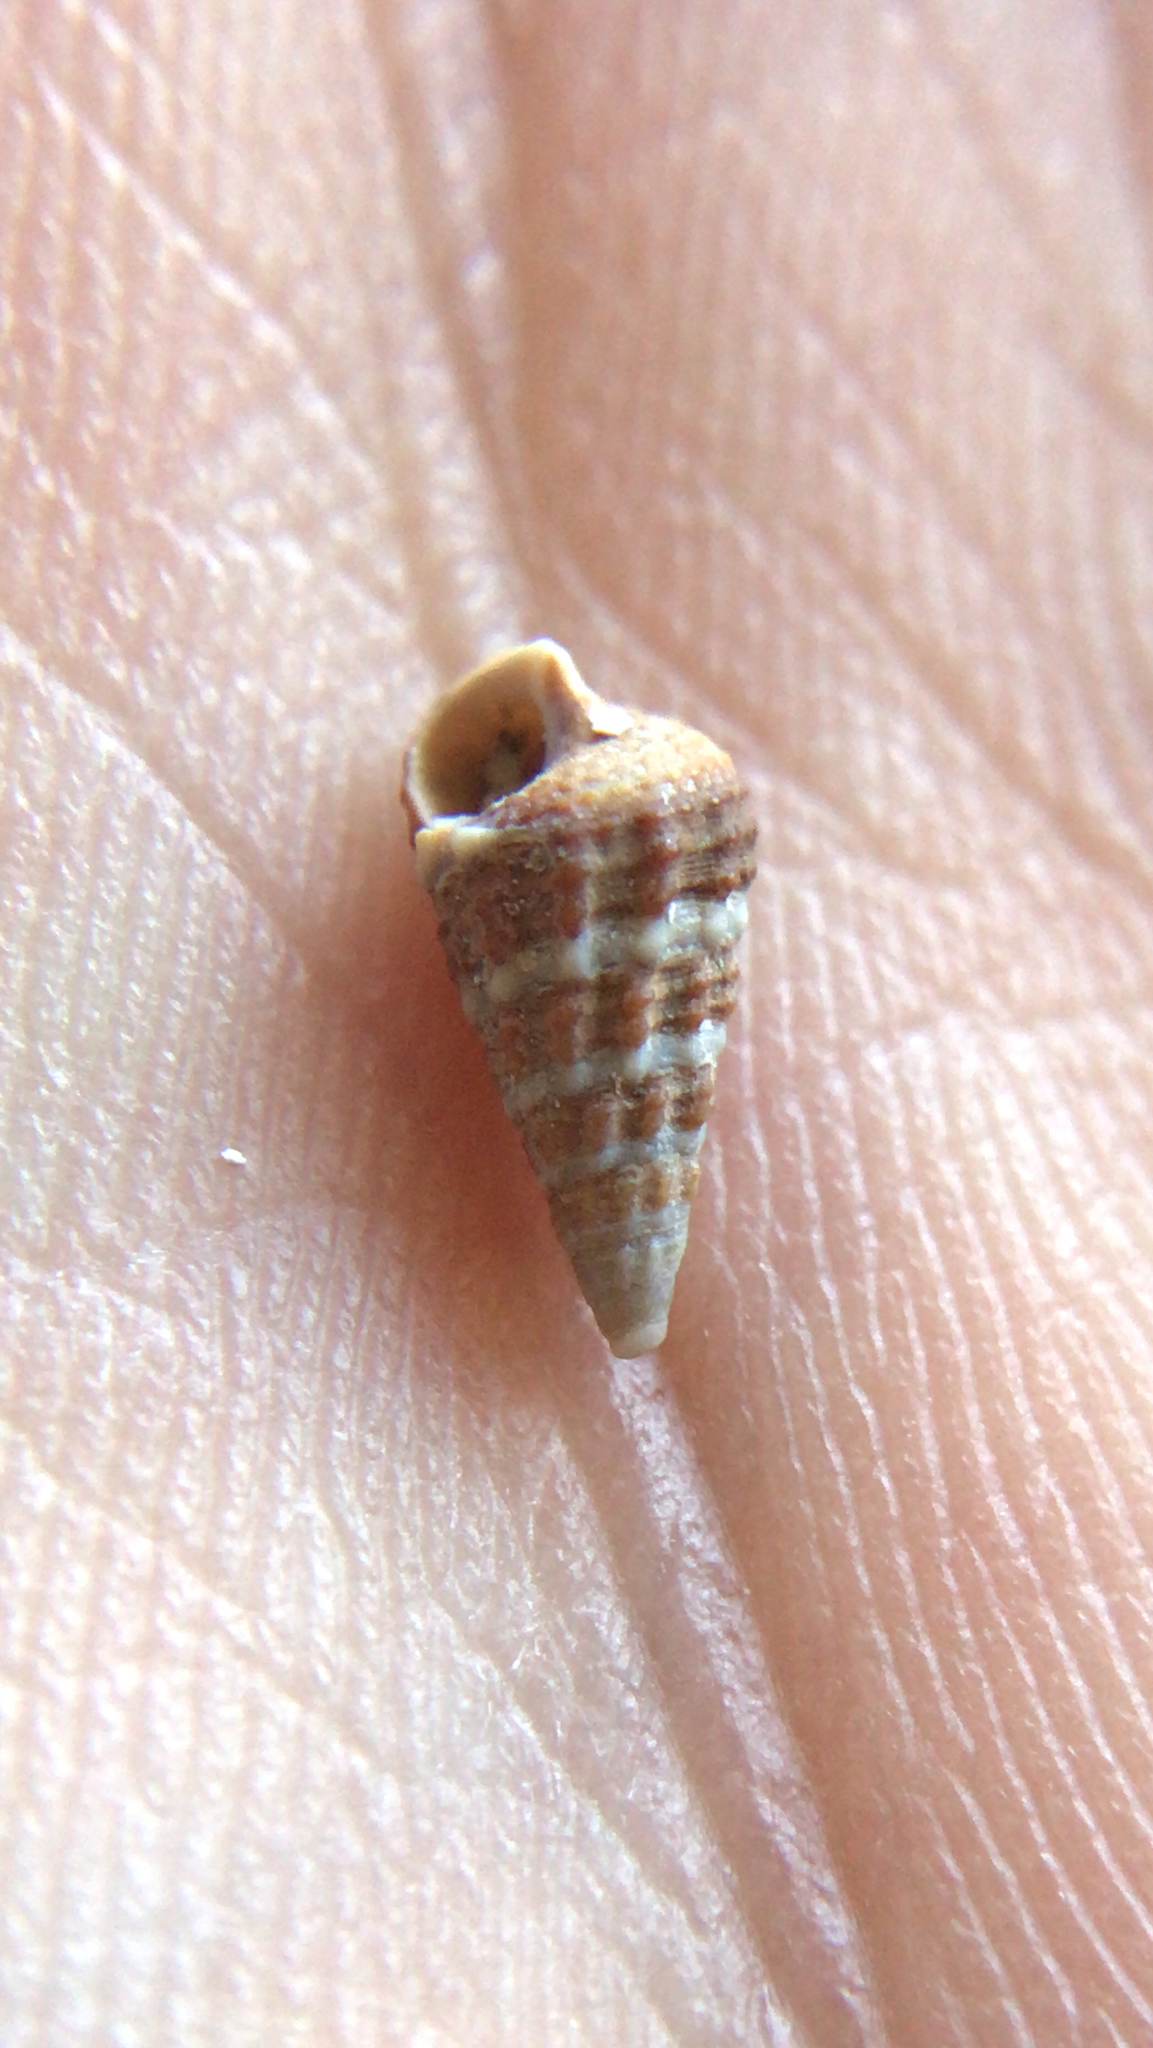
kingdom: Animalia
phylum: Mollusca
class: Gastropoda
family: Batillariidae
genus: Lampanella
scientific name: Lampanella minima
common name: West indian false cerith
